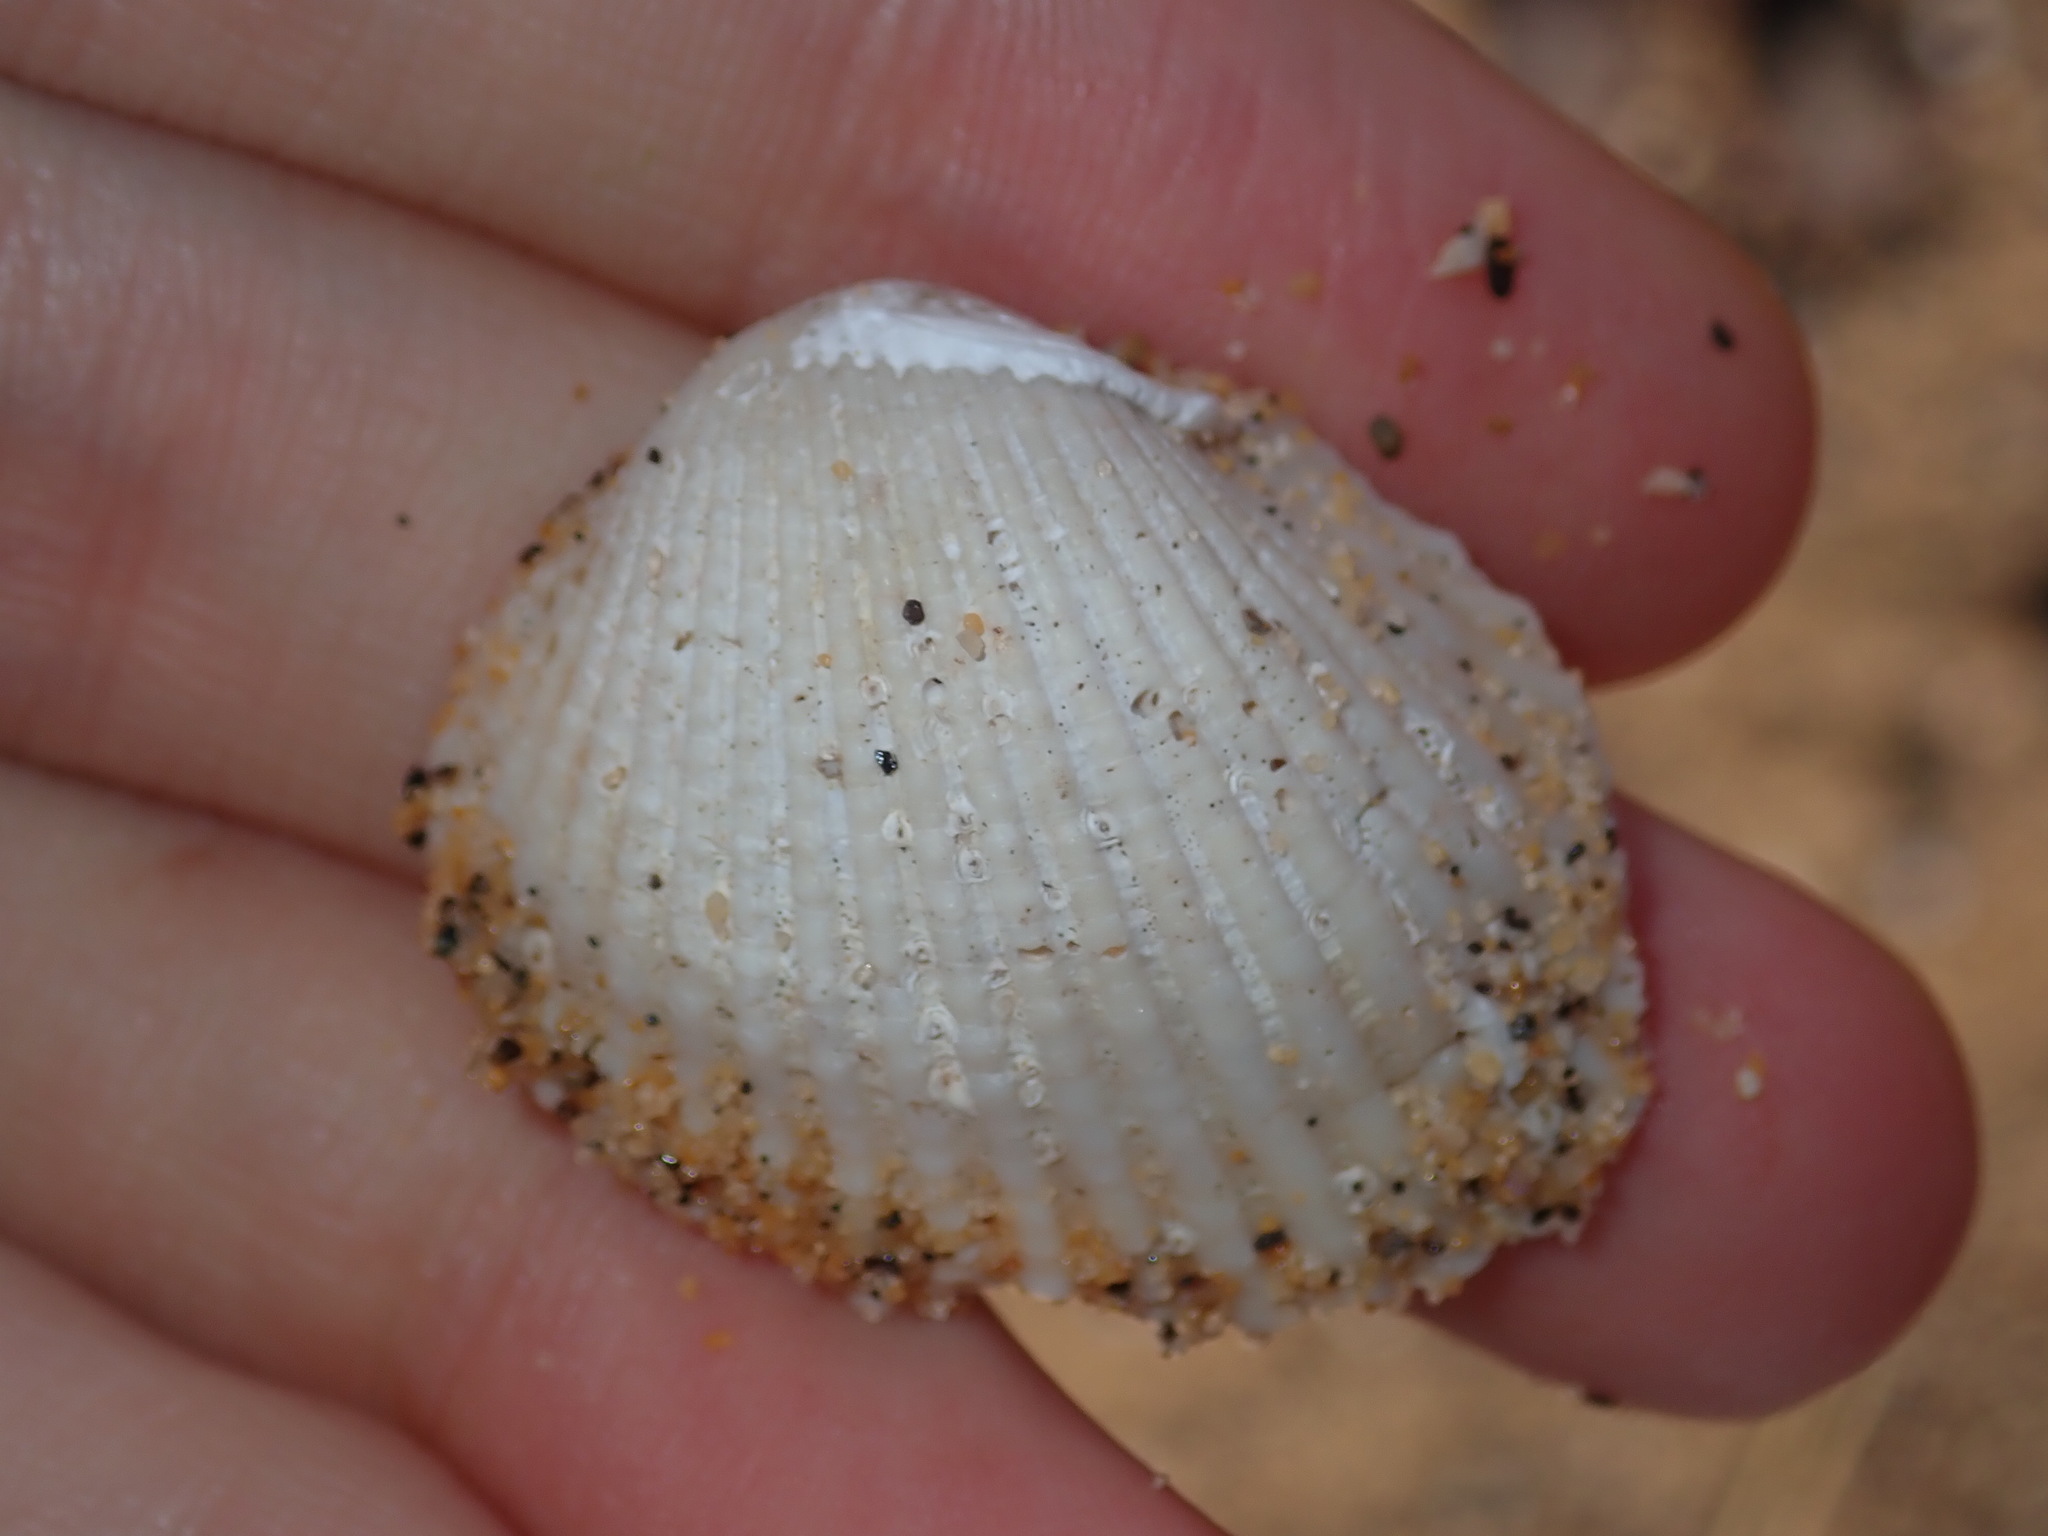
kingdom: Animalia
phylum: Mollusca
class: Bivalvia
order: Arcida
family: Arcidae
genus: Anadara
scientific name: Anadara trapezia
